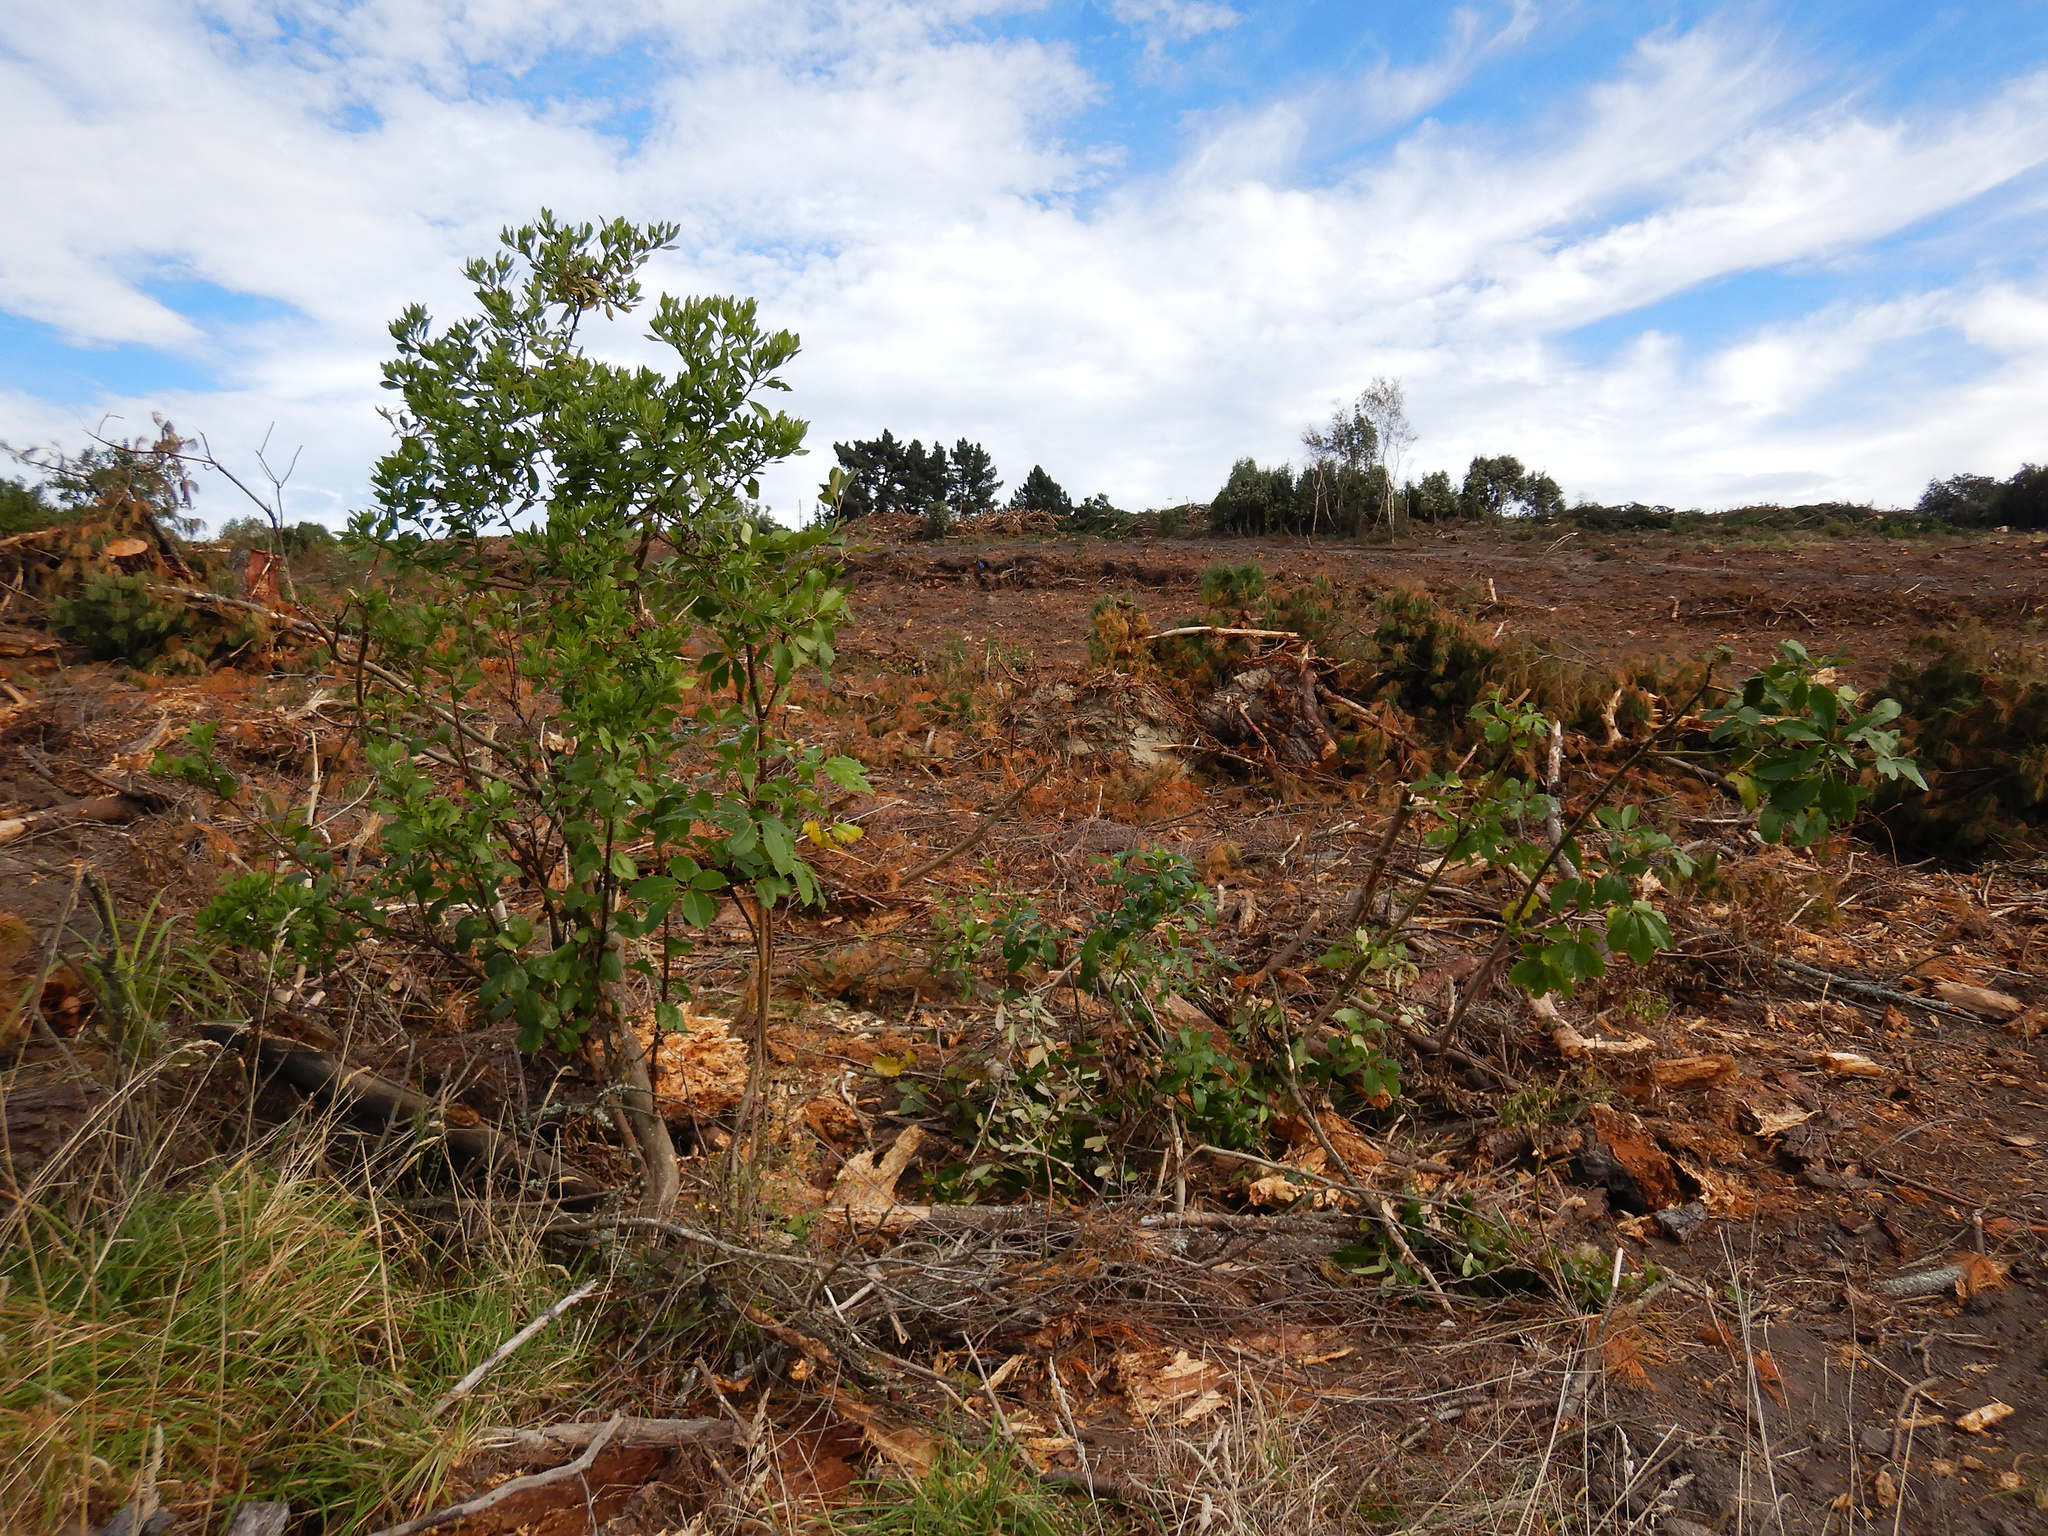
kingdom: Plantae
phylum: Tracheophyta
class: Magnoliopsida
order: Apiales
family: Araliaceae
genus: Neopanax
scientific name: Neopanax arboreus
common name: Five-fingers
